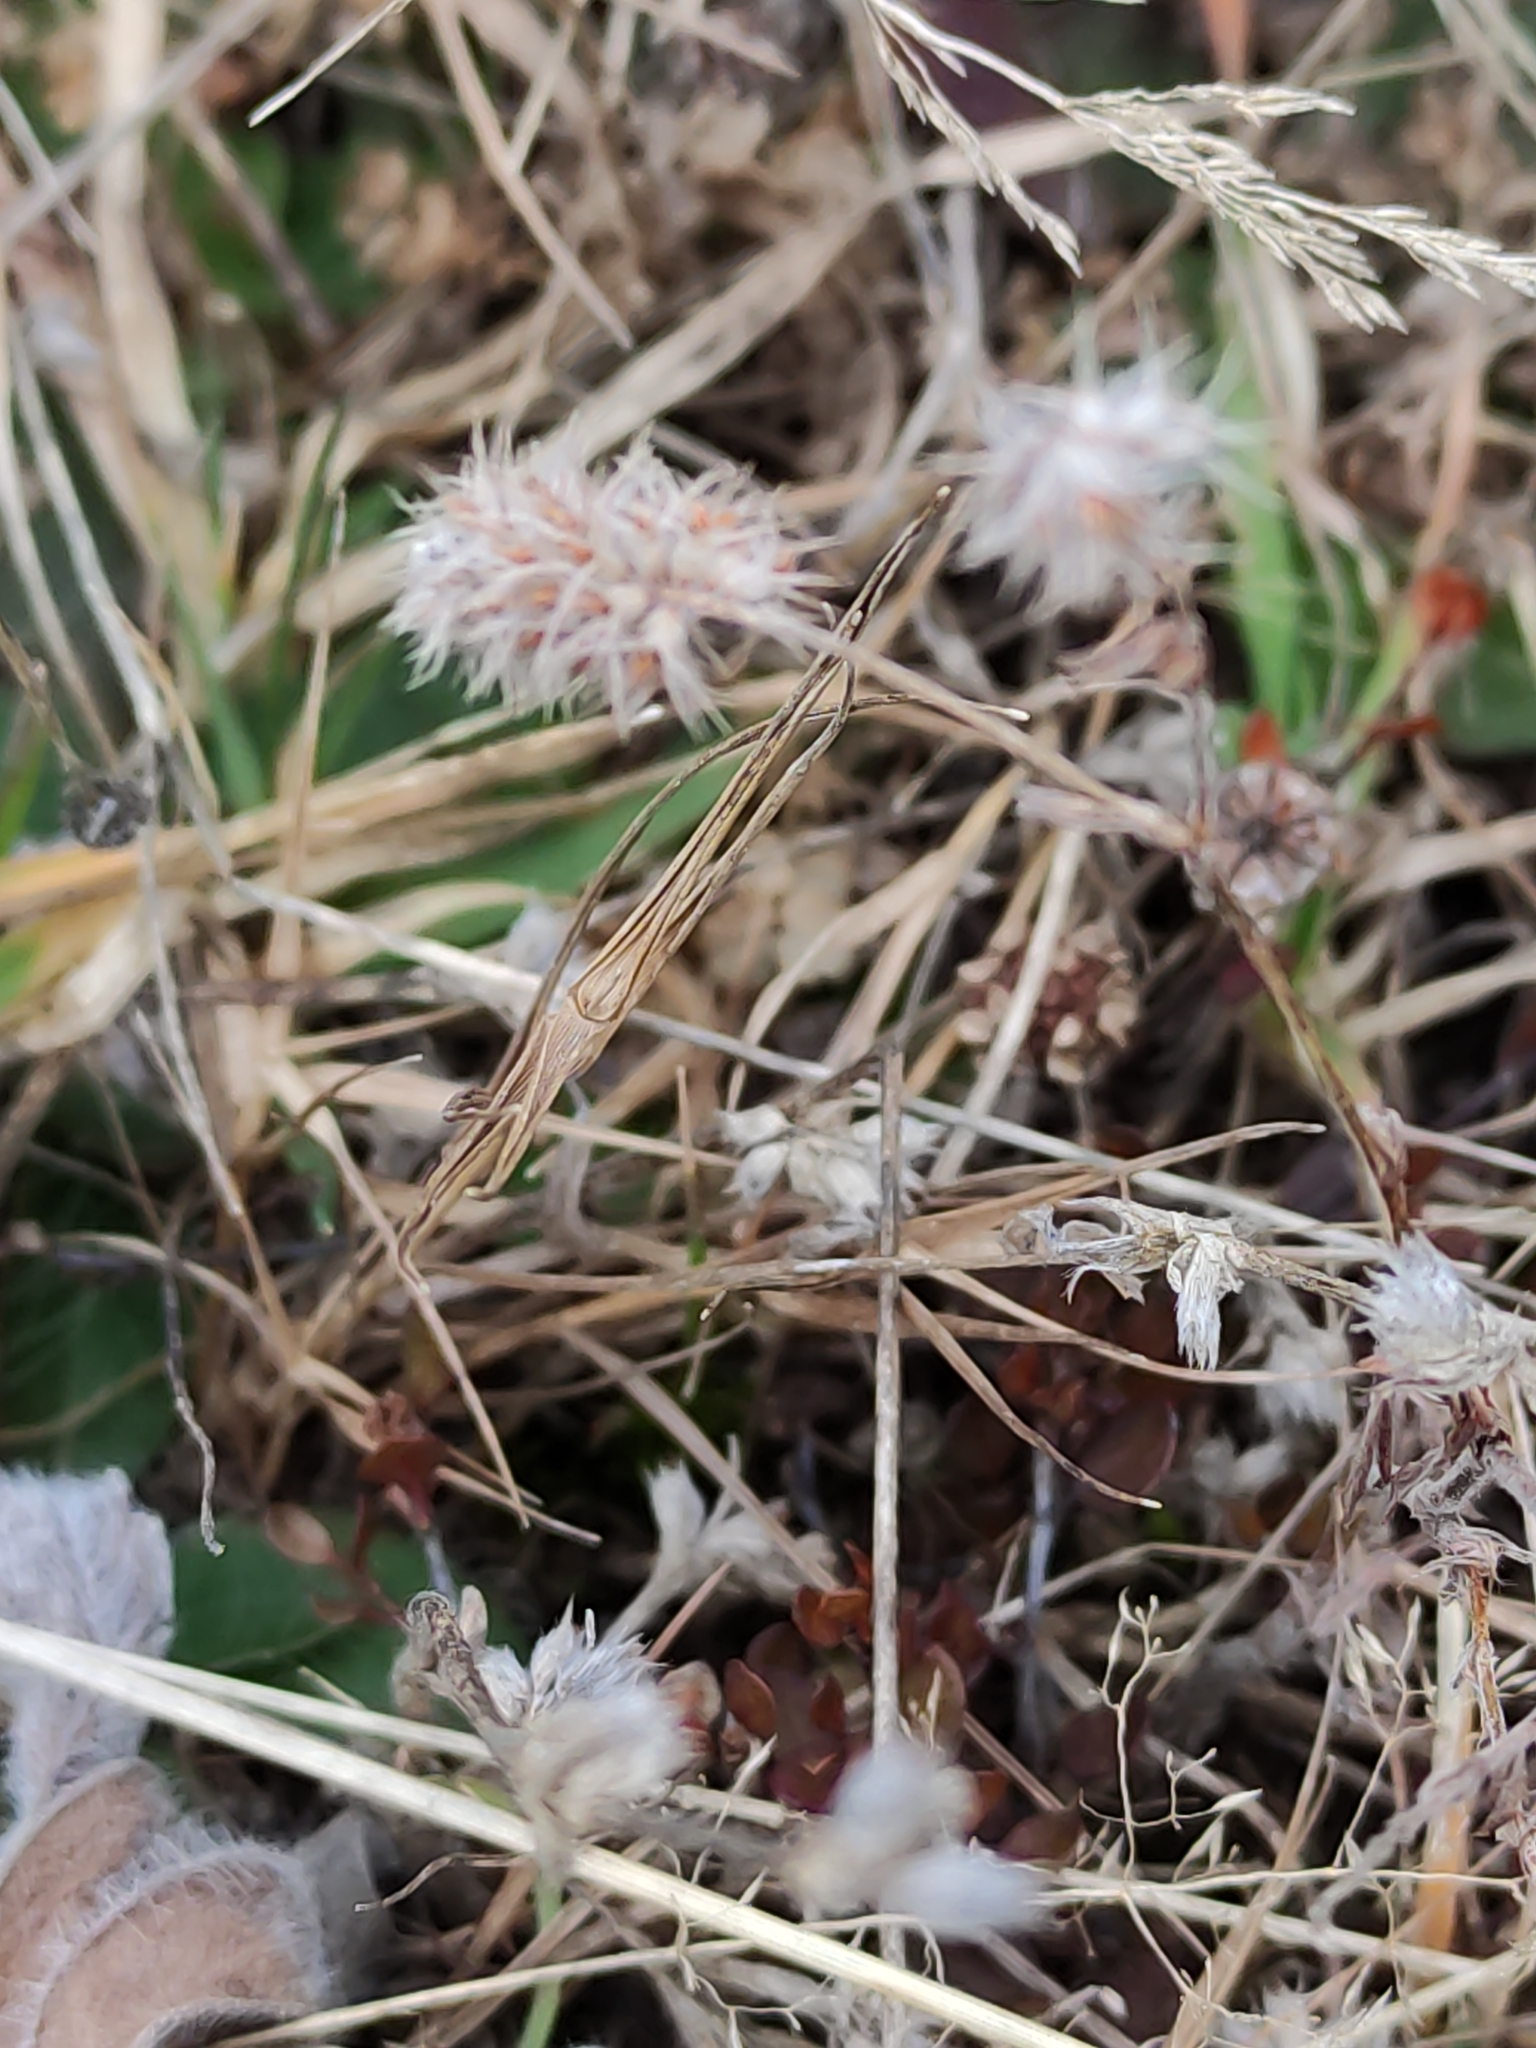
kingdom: Plantae
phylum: Tracheophyta
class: Magnoliopsida
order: Fabales
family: Fabaceae
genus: Trifolium
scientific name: Trifolium arvense
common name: Hare's-foot clover
